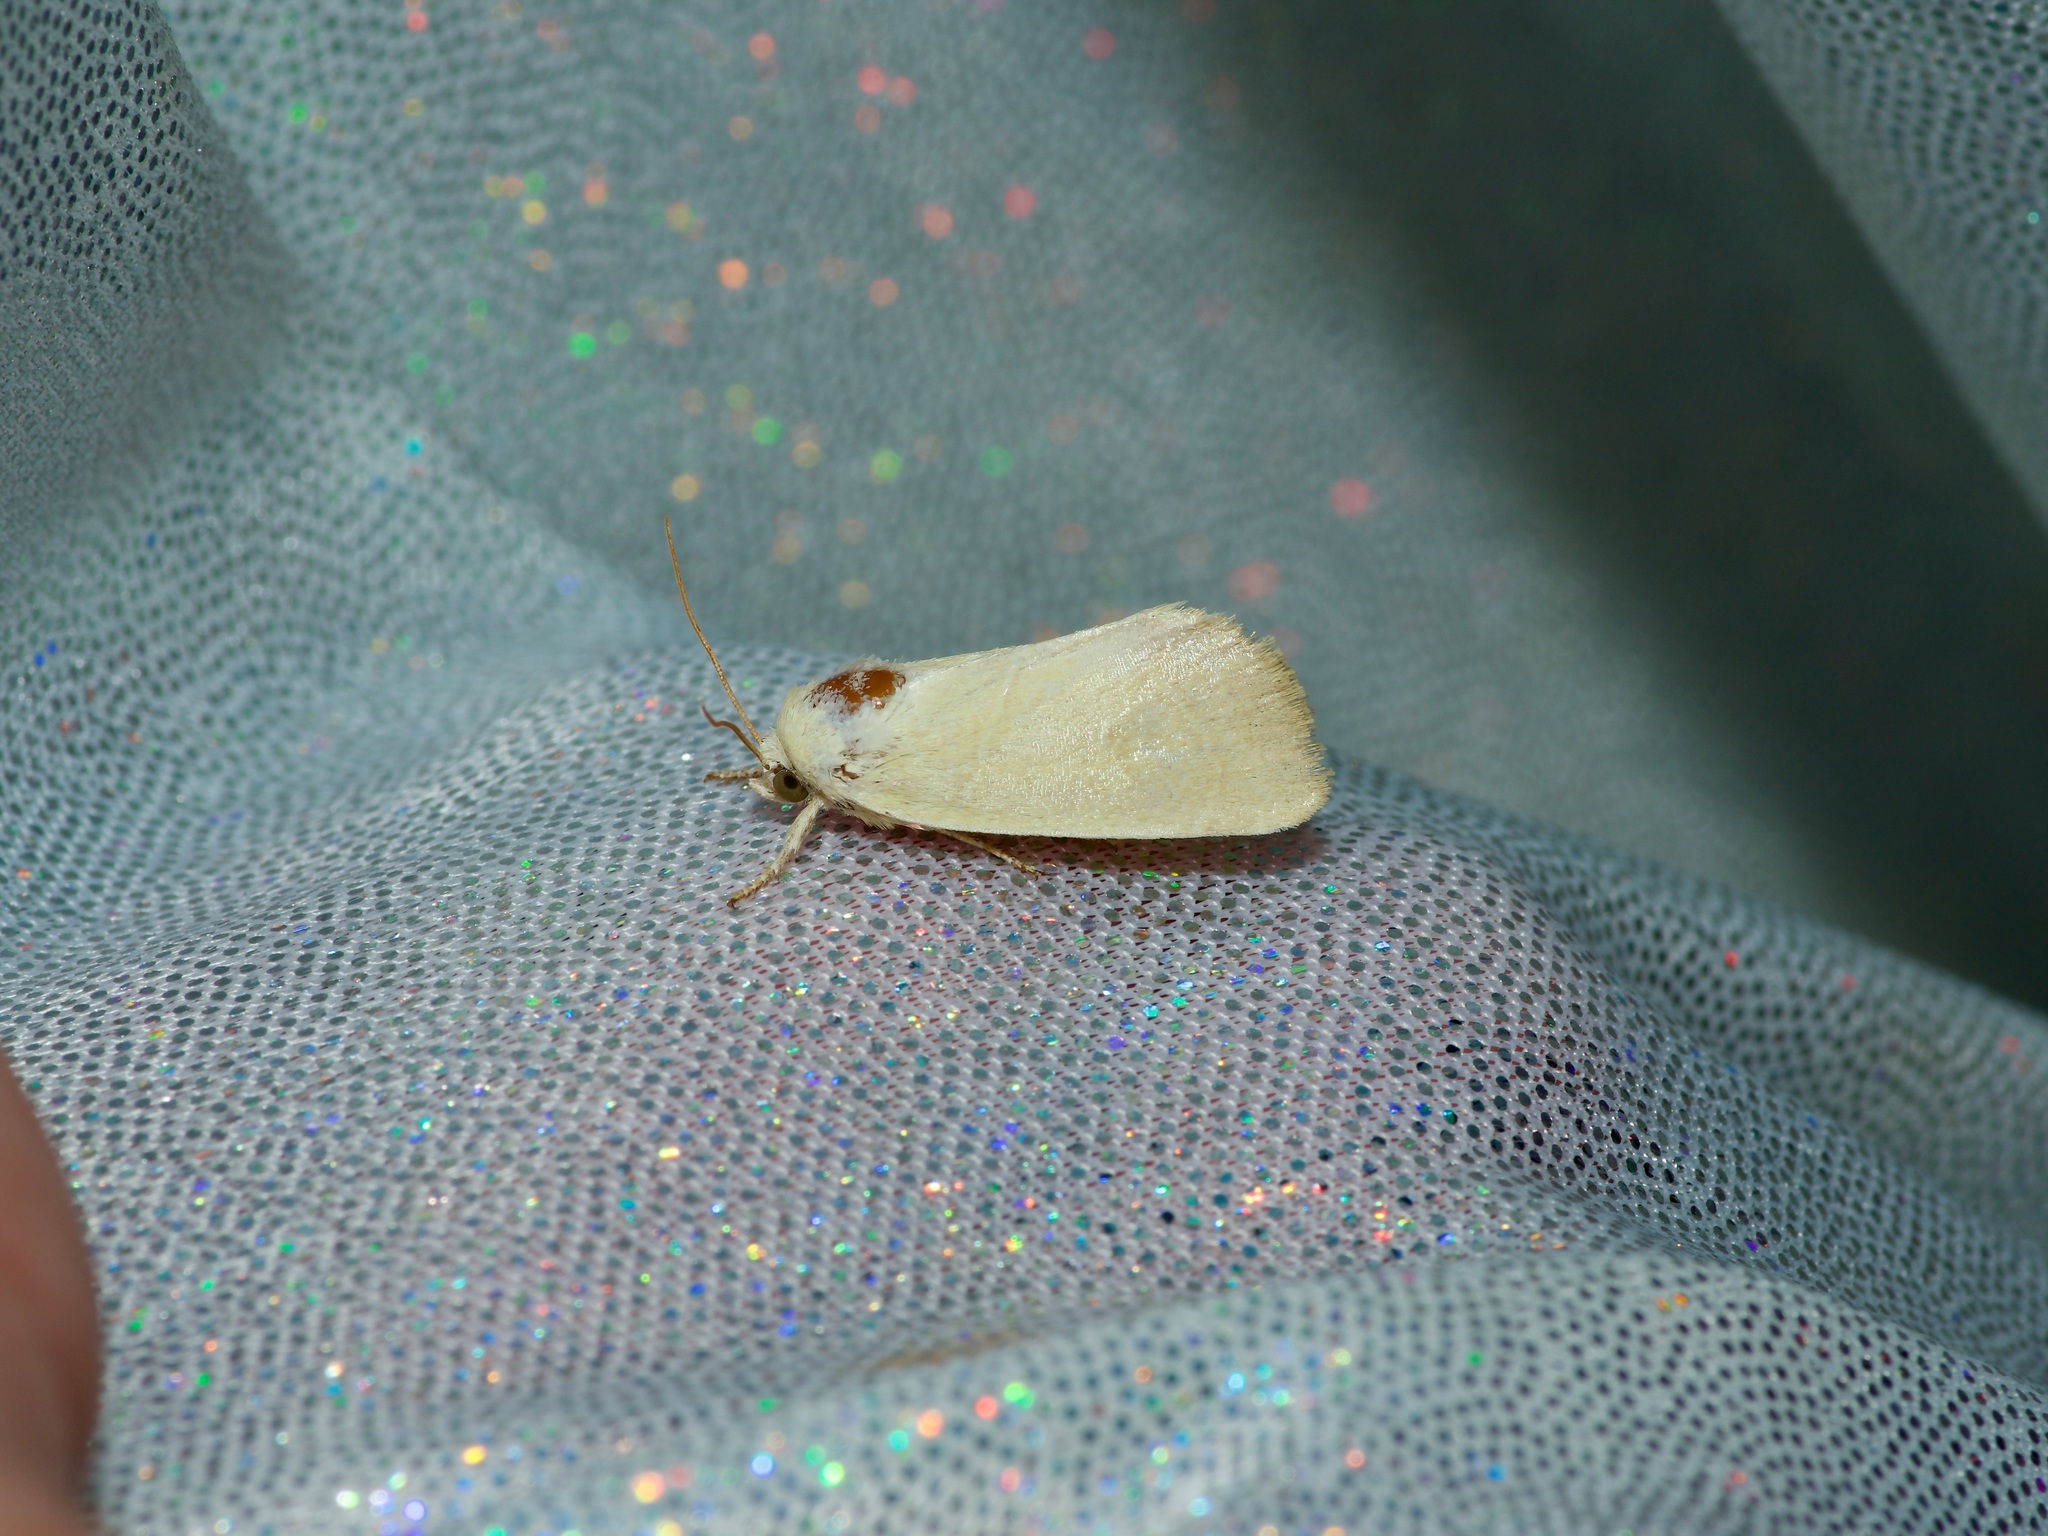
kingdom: Animalia
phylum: Arthropoda
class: Insecta
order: Lepidoptera
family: Noctuidae
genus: Cosmia
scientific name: Cosmia calami
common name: American dun-bar moth
